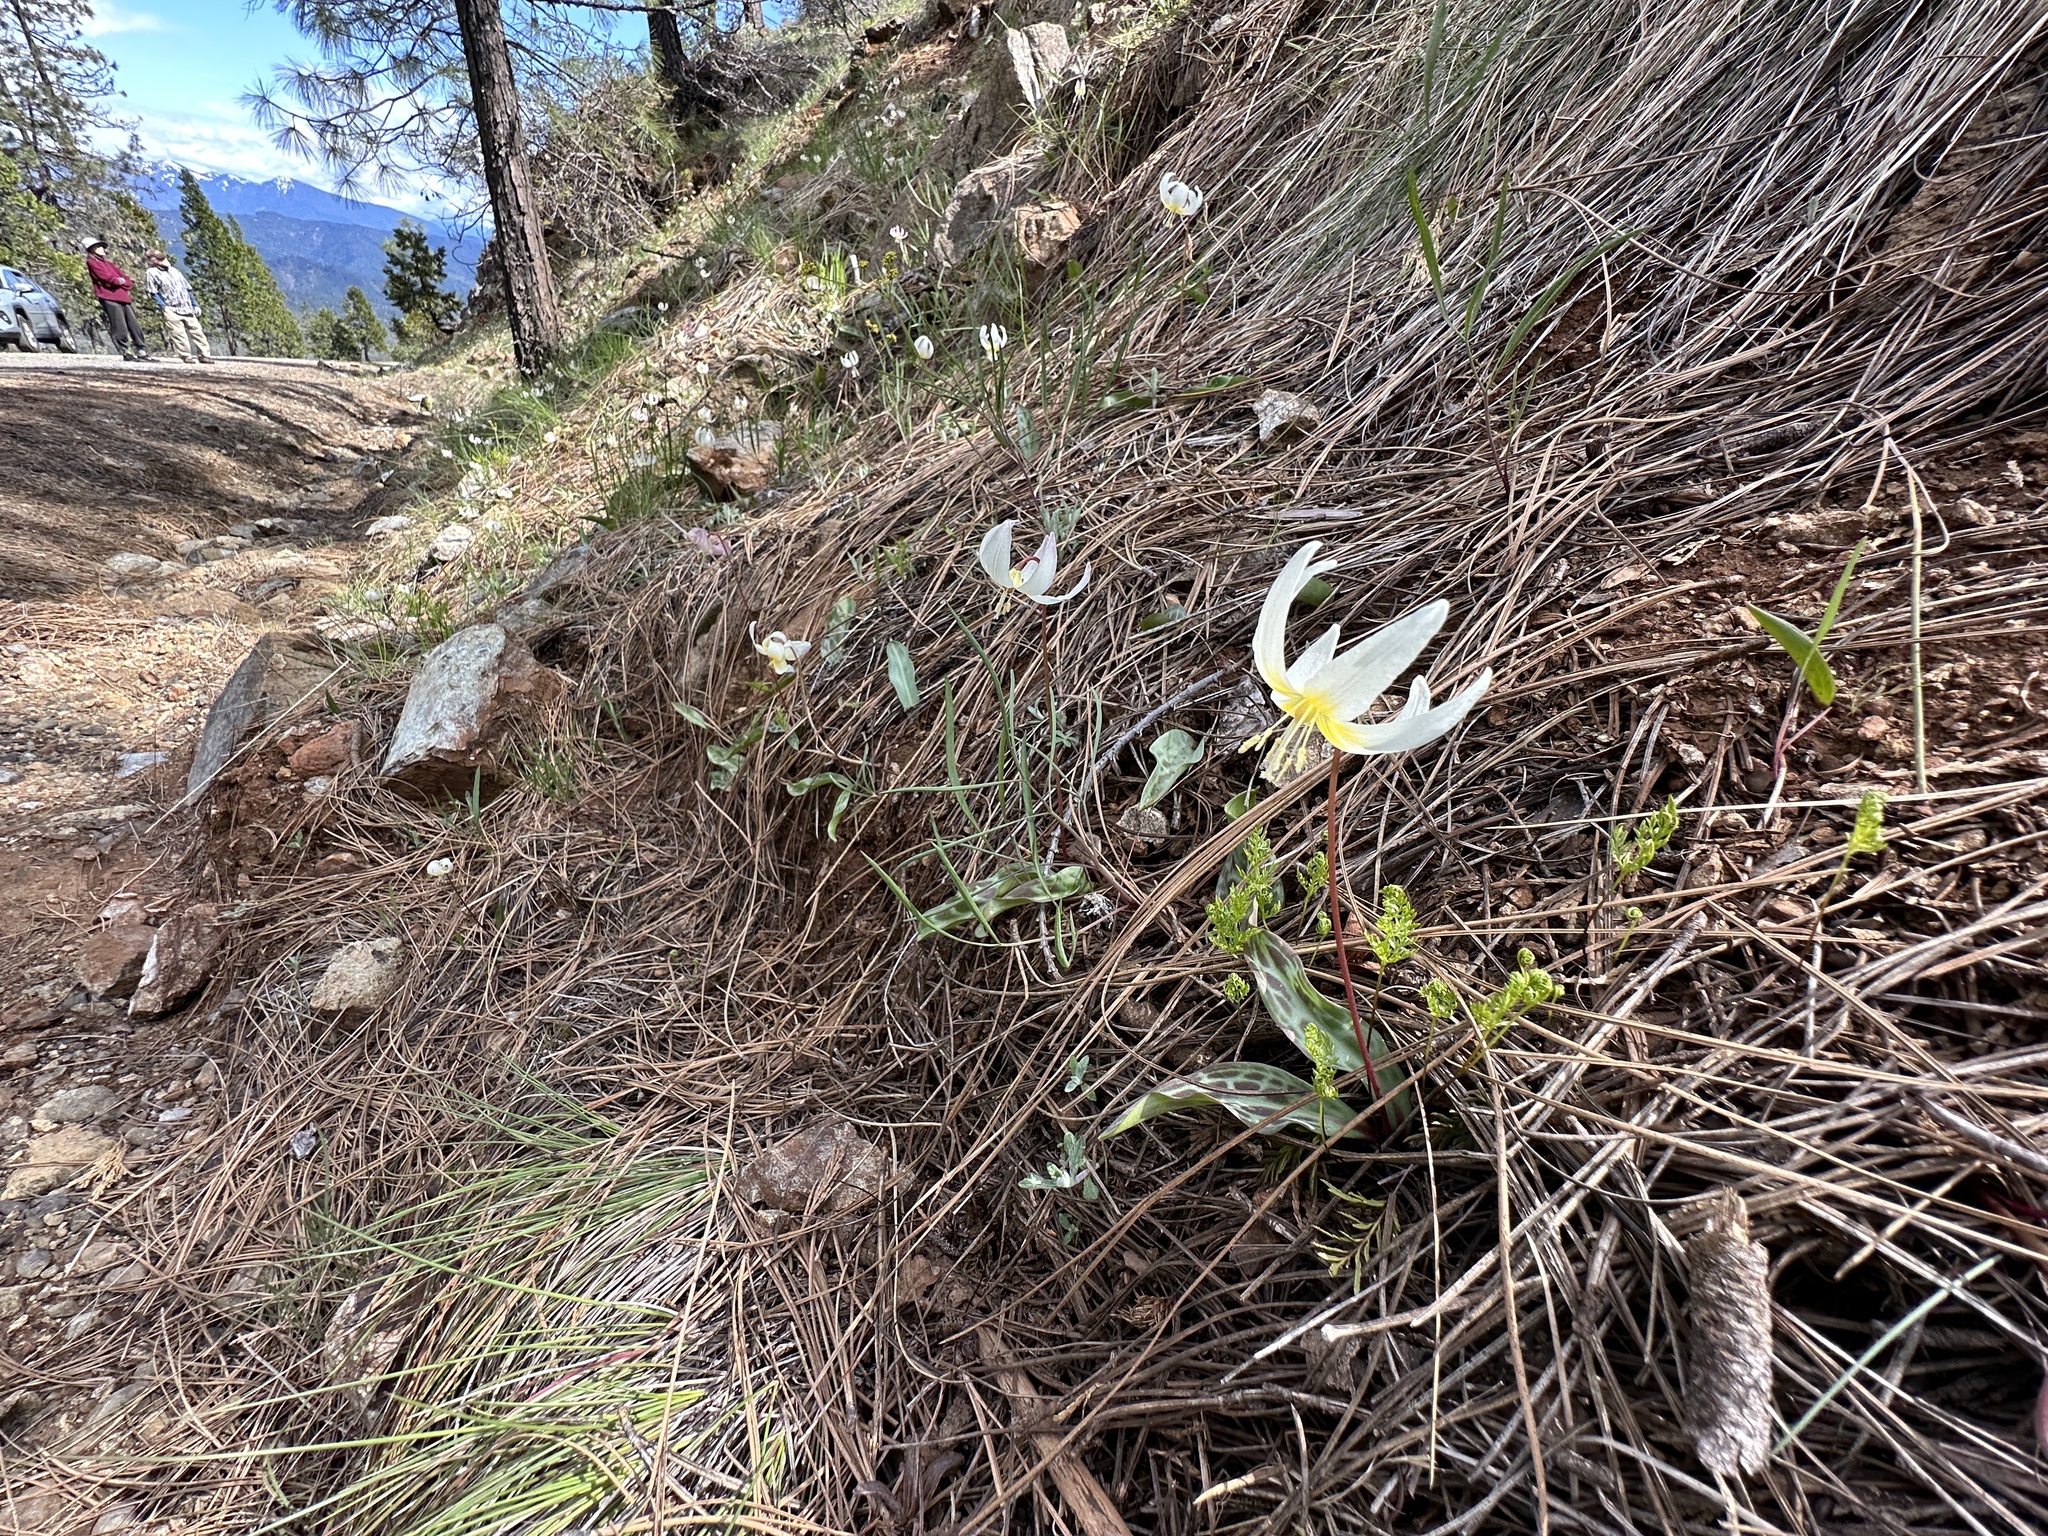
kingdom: Plantae
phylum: Tracheophyta
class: Liliopsida
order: Liliales
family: Liliaceae
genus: Erythronium
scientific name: Erythronium citrinum
